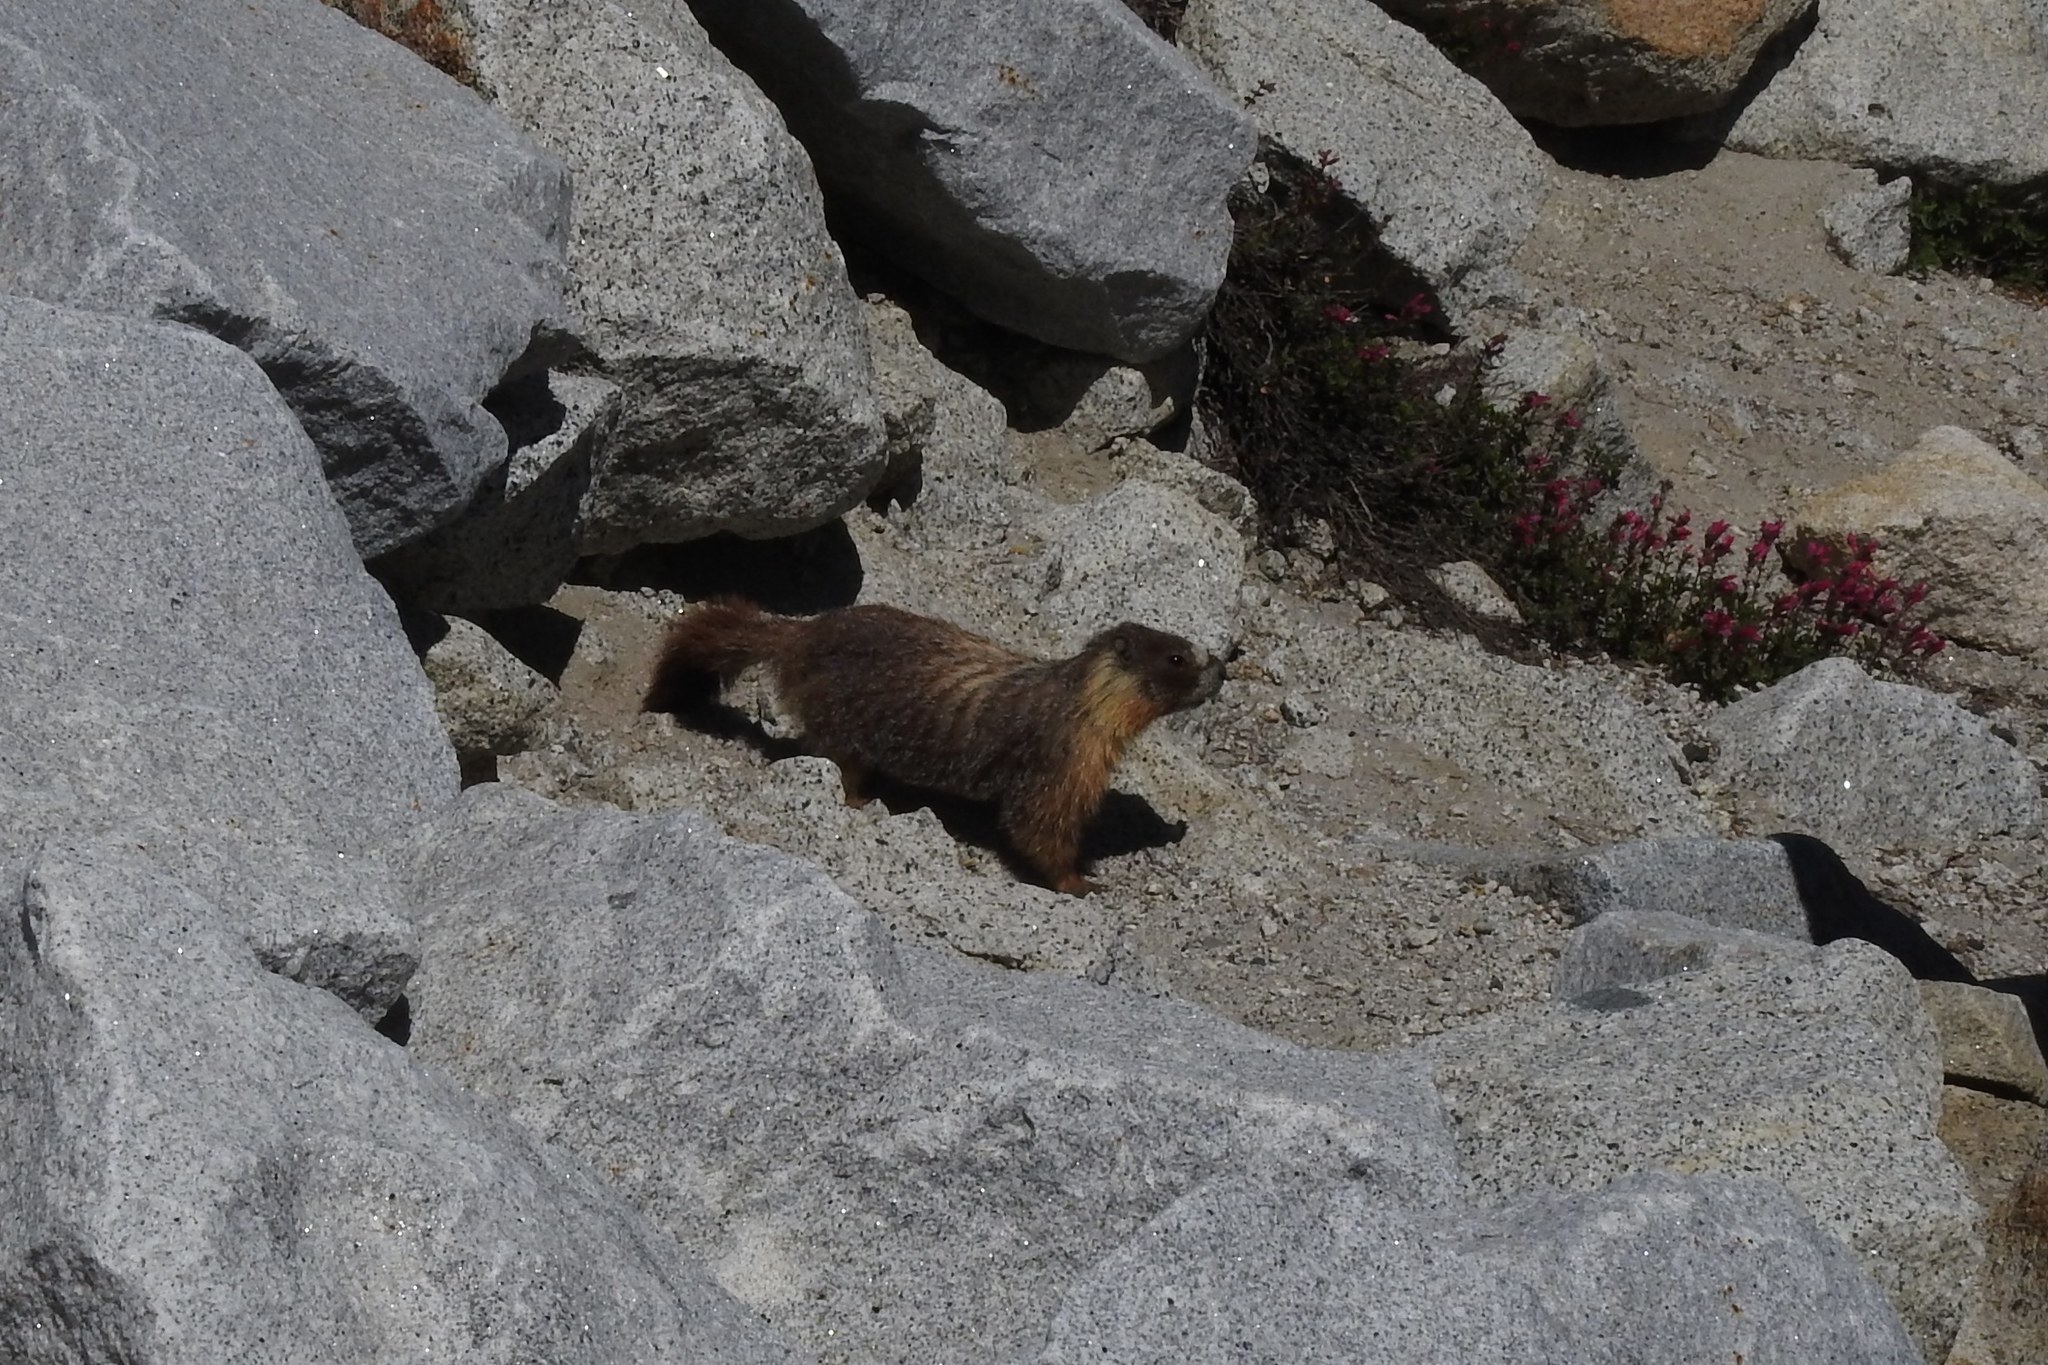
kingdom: Animalia
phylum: Chordata
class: Mammalia
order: Rodentia
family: Sciuridae
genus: Marmota
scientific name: Marmota flaviventris
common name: Yellow-bellied marmot
